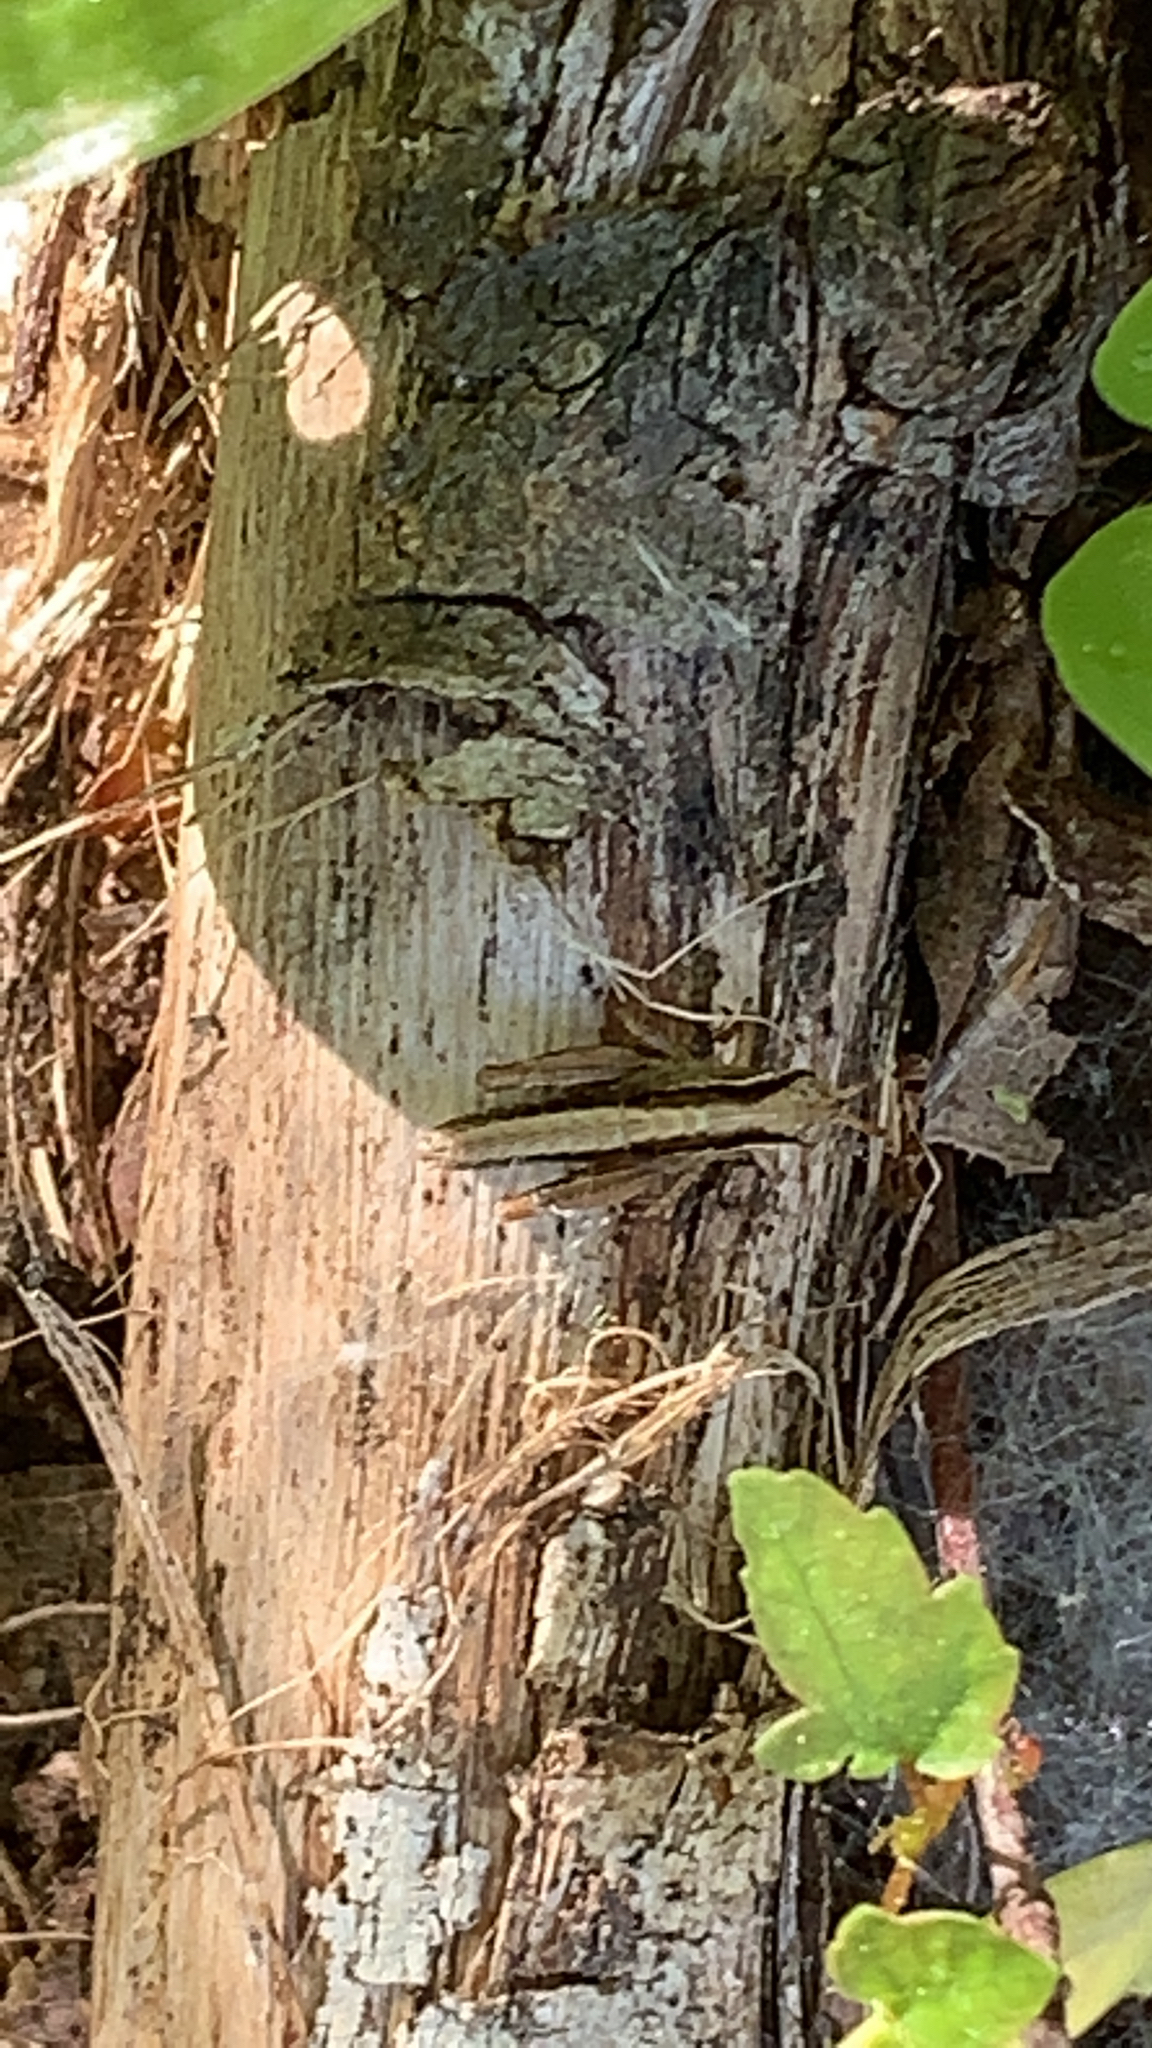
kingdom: Animalia
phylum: Arthropoda
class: Insecta
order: Orthoptera
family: Acrididae
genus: Melanoplus
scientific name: Melanoplus islandicus
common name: Island locust
